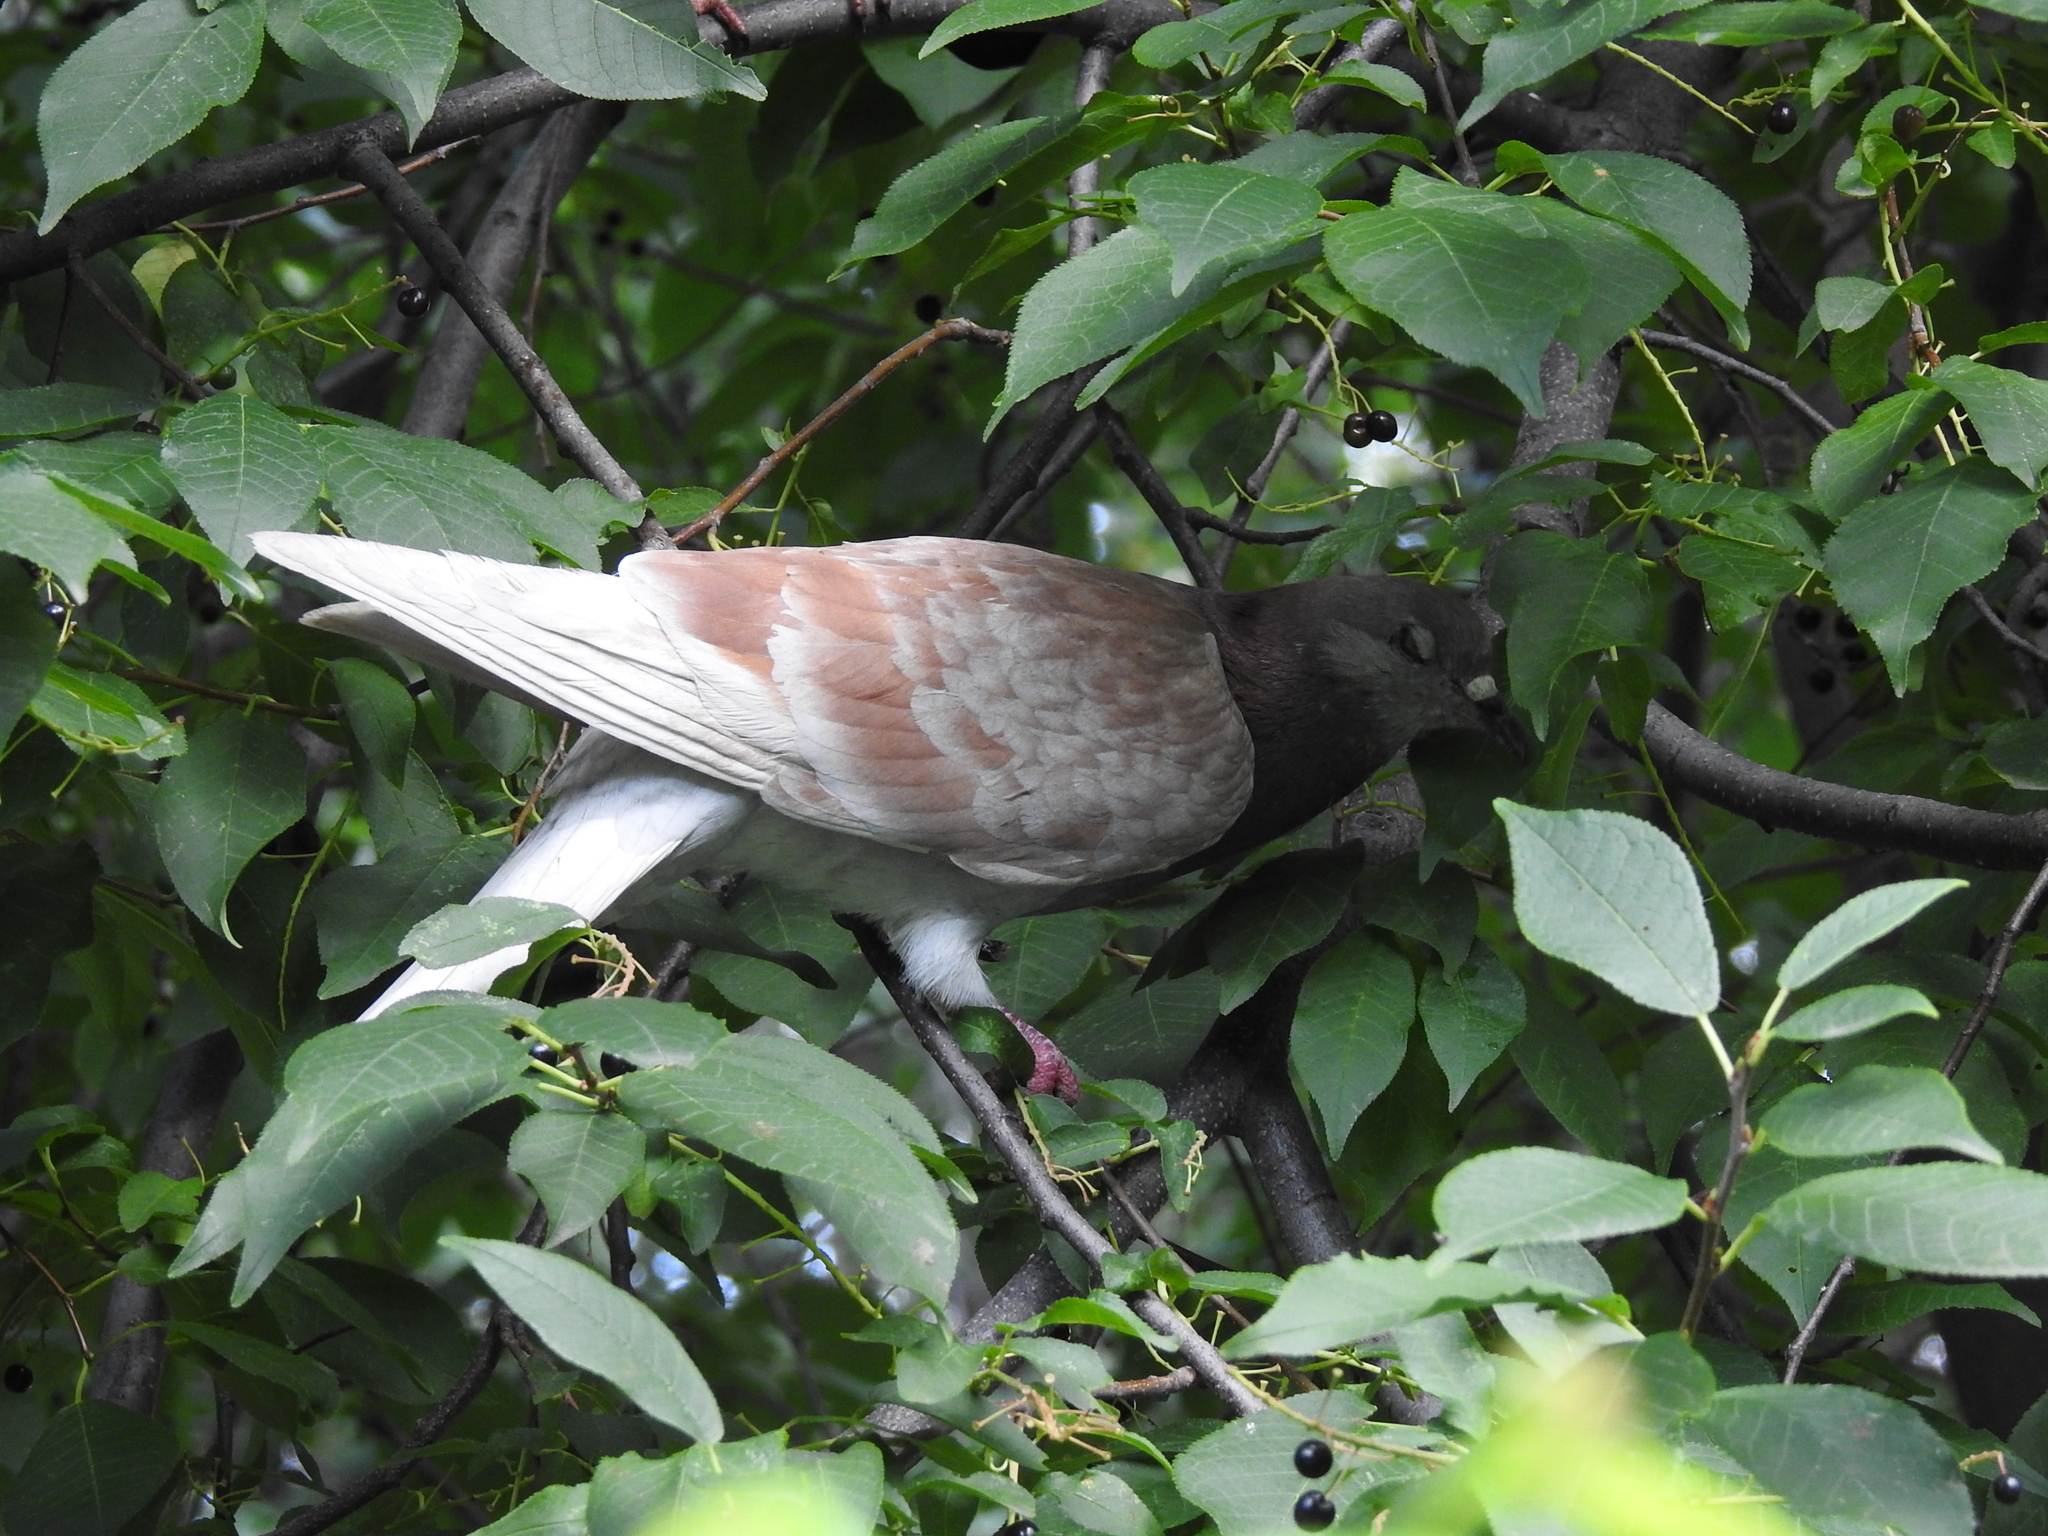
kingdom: Animalia
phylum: Chordata
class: Aves
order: Columbiformes
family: Columbidae
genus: Columba
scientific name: Columba livia
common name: Rock pigeon
